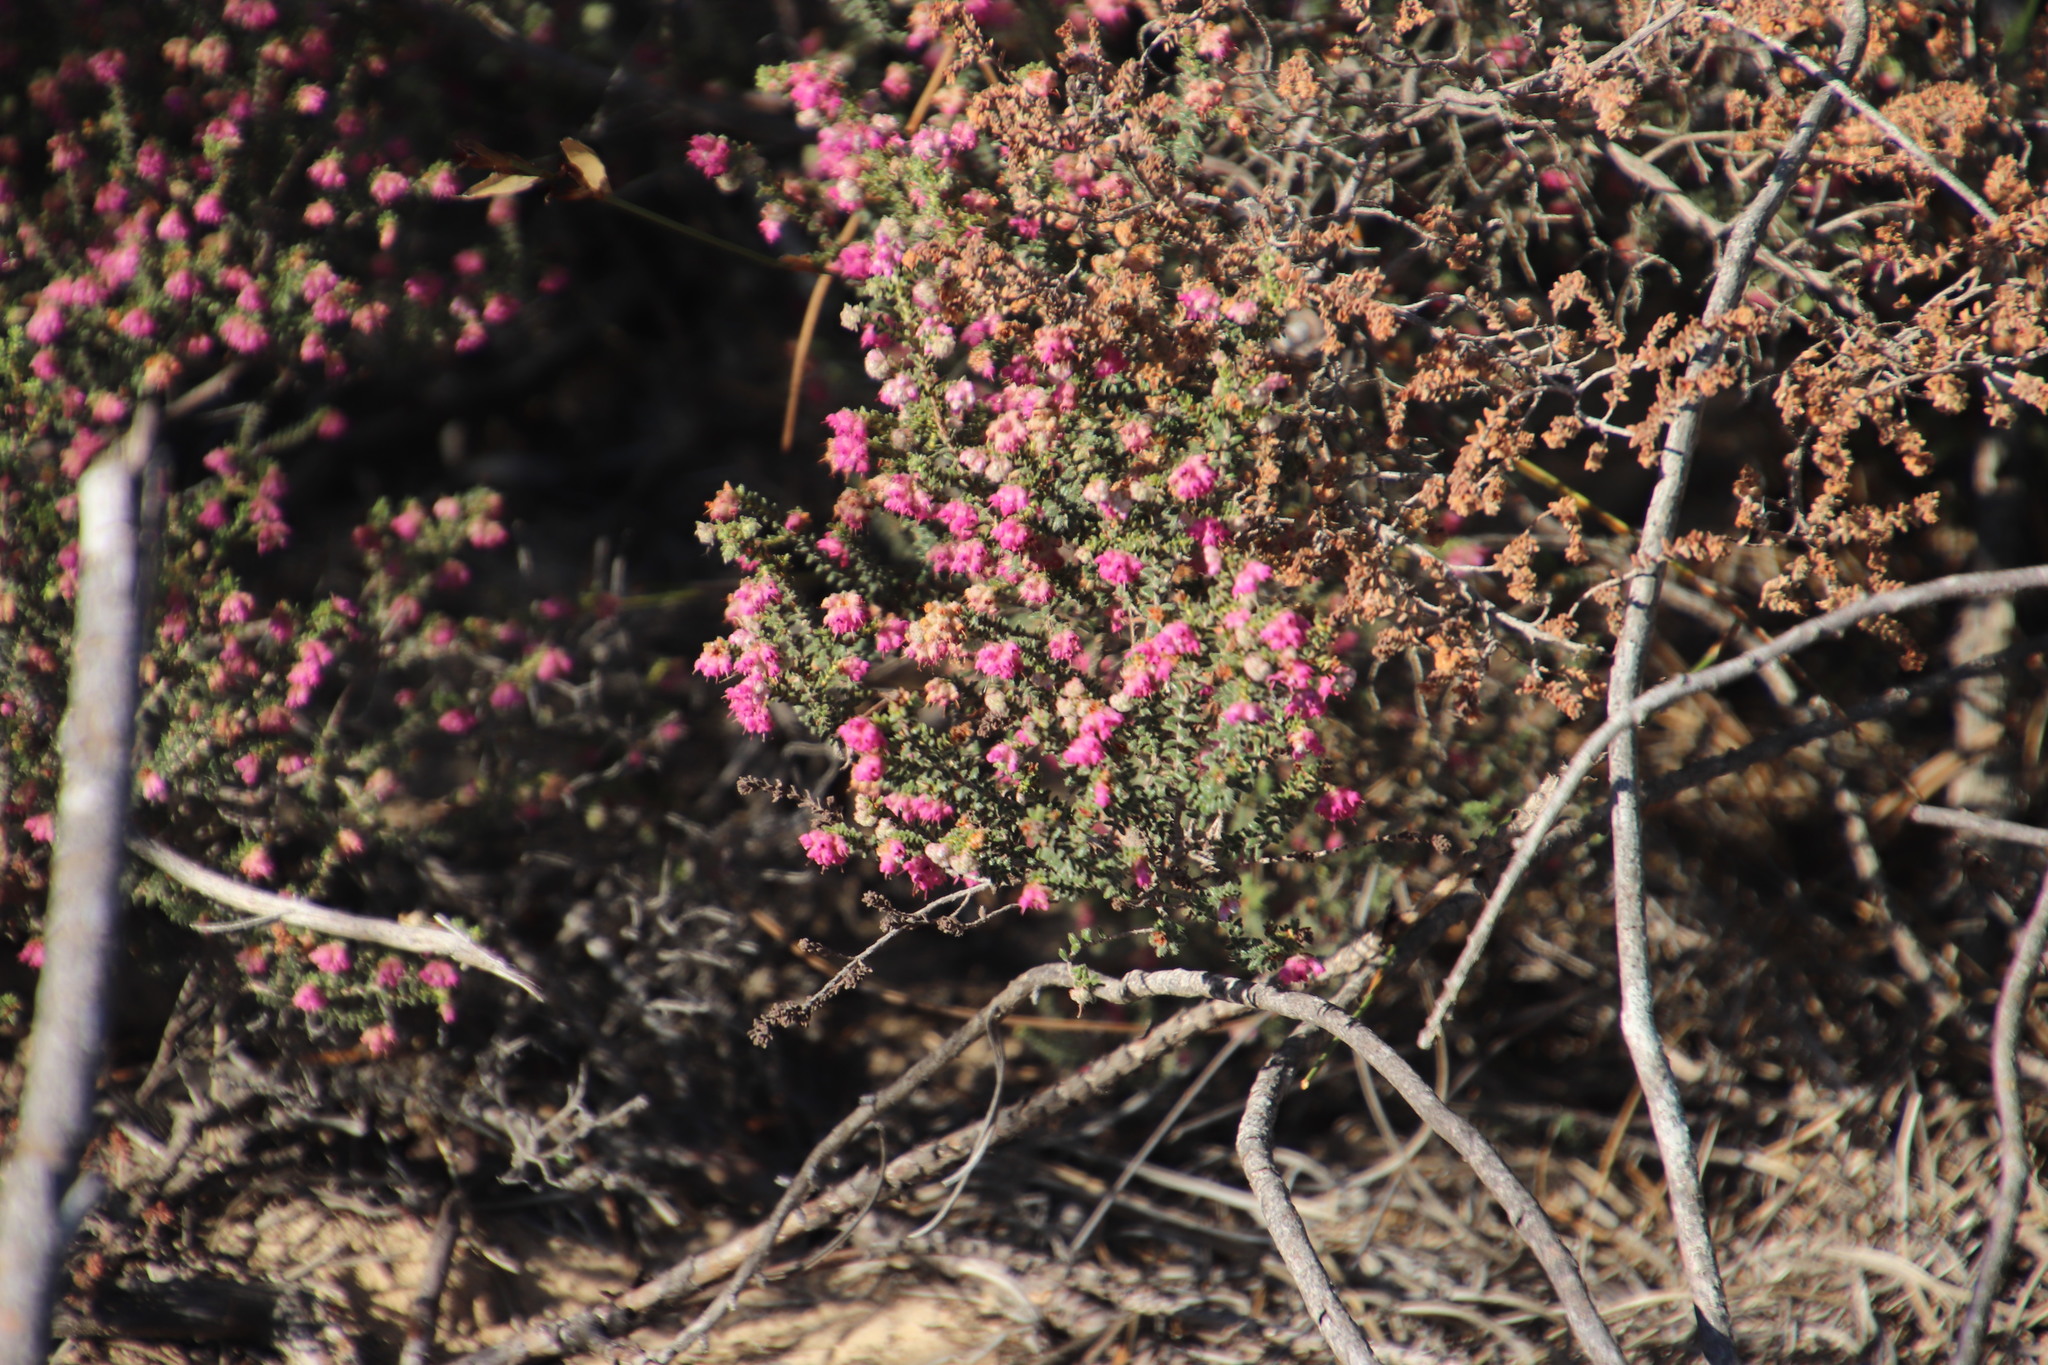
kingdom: Plantae
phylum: Tracheophyta
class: Magnoliopsida
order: Ericales
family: Ericaceae
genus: Erica
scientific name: Erica plumosa
